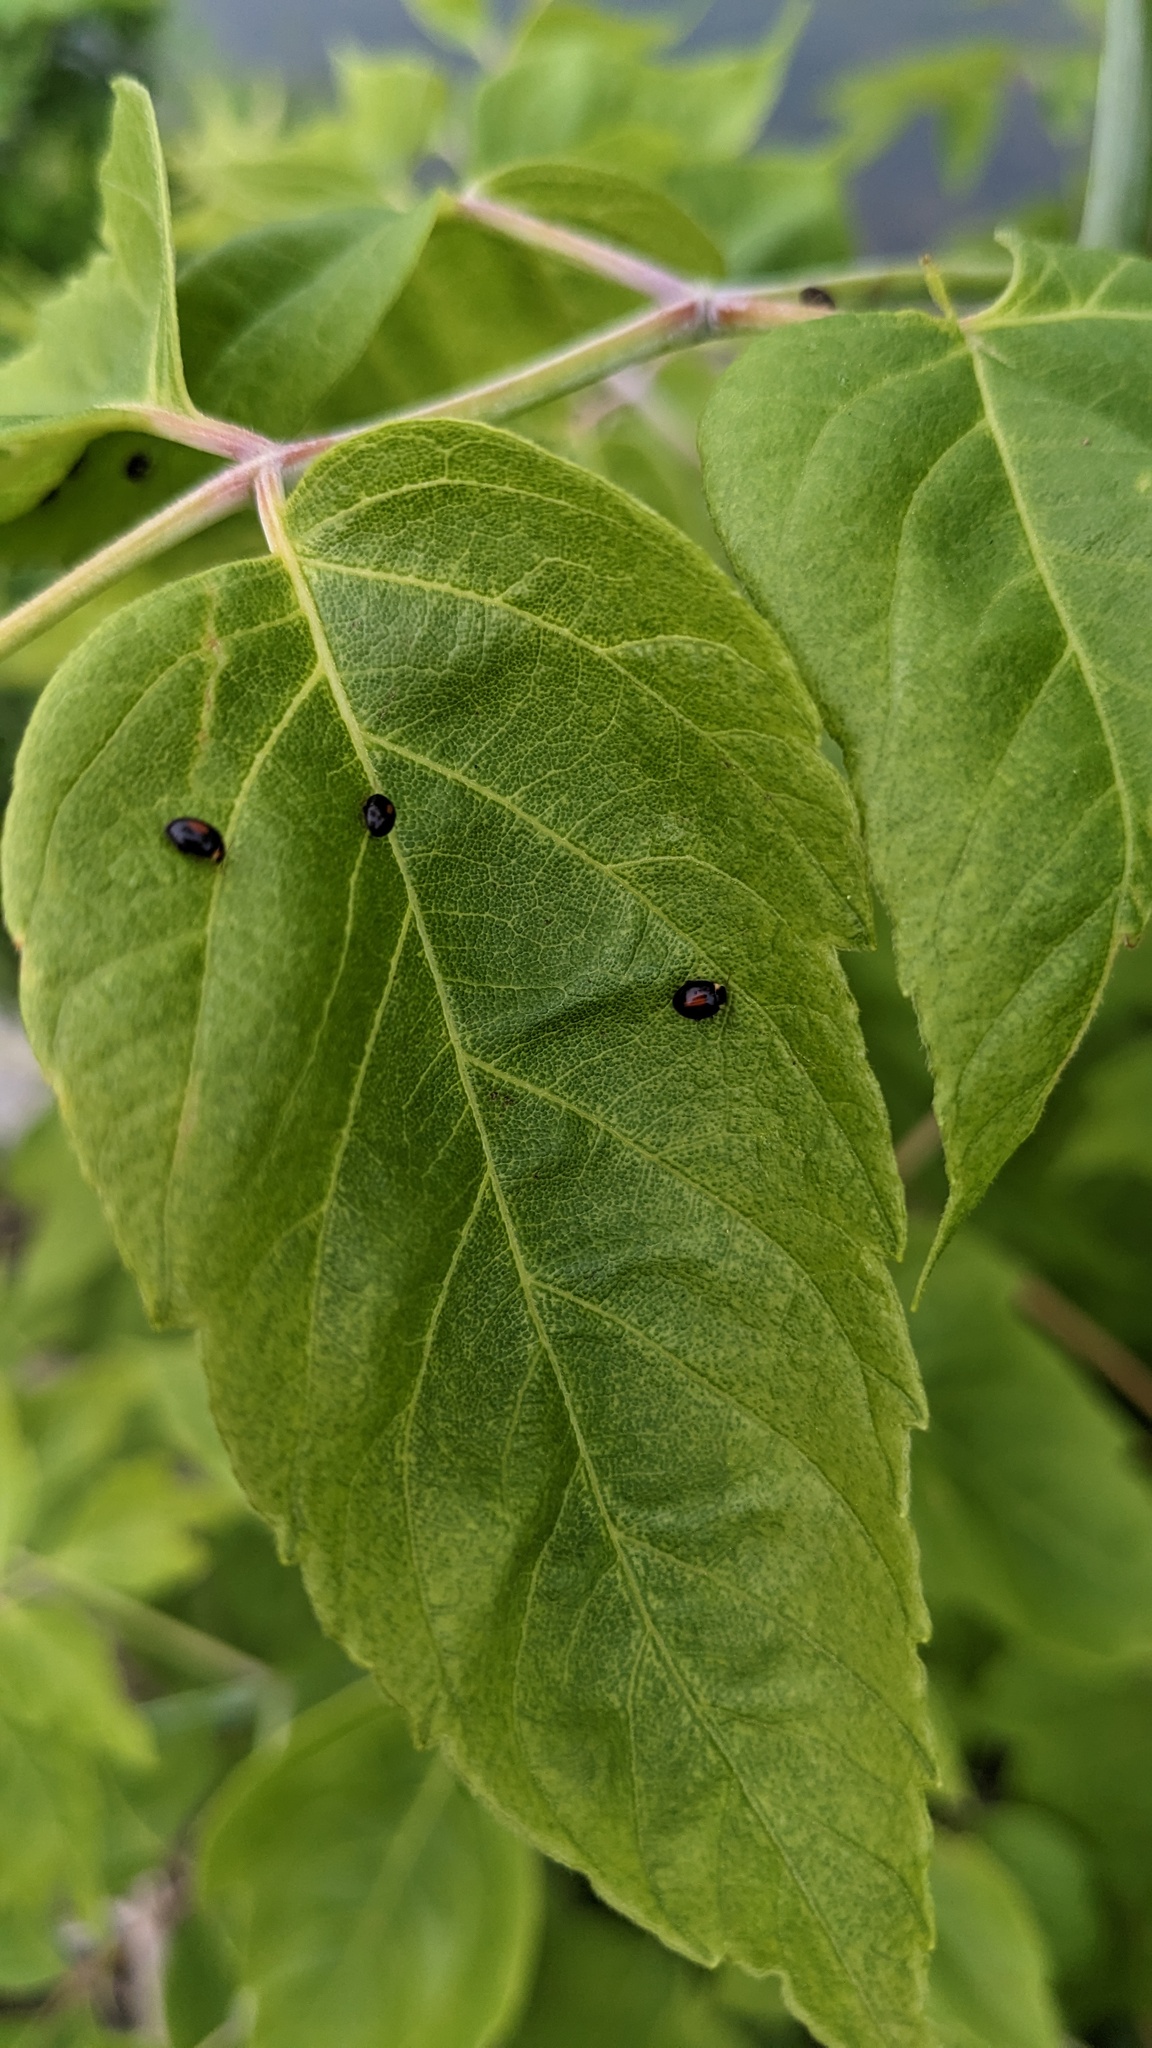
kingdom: Animalia
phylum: Arthropoda
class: Insecta
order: Coleoptera
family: Scirtidae
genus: Scirtes
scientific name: Scirtes orbiculatus
